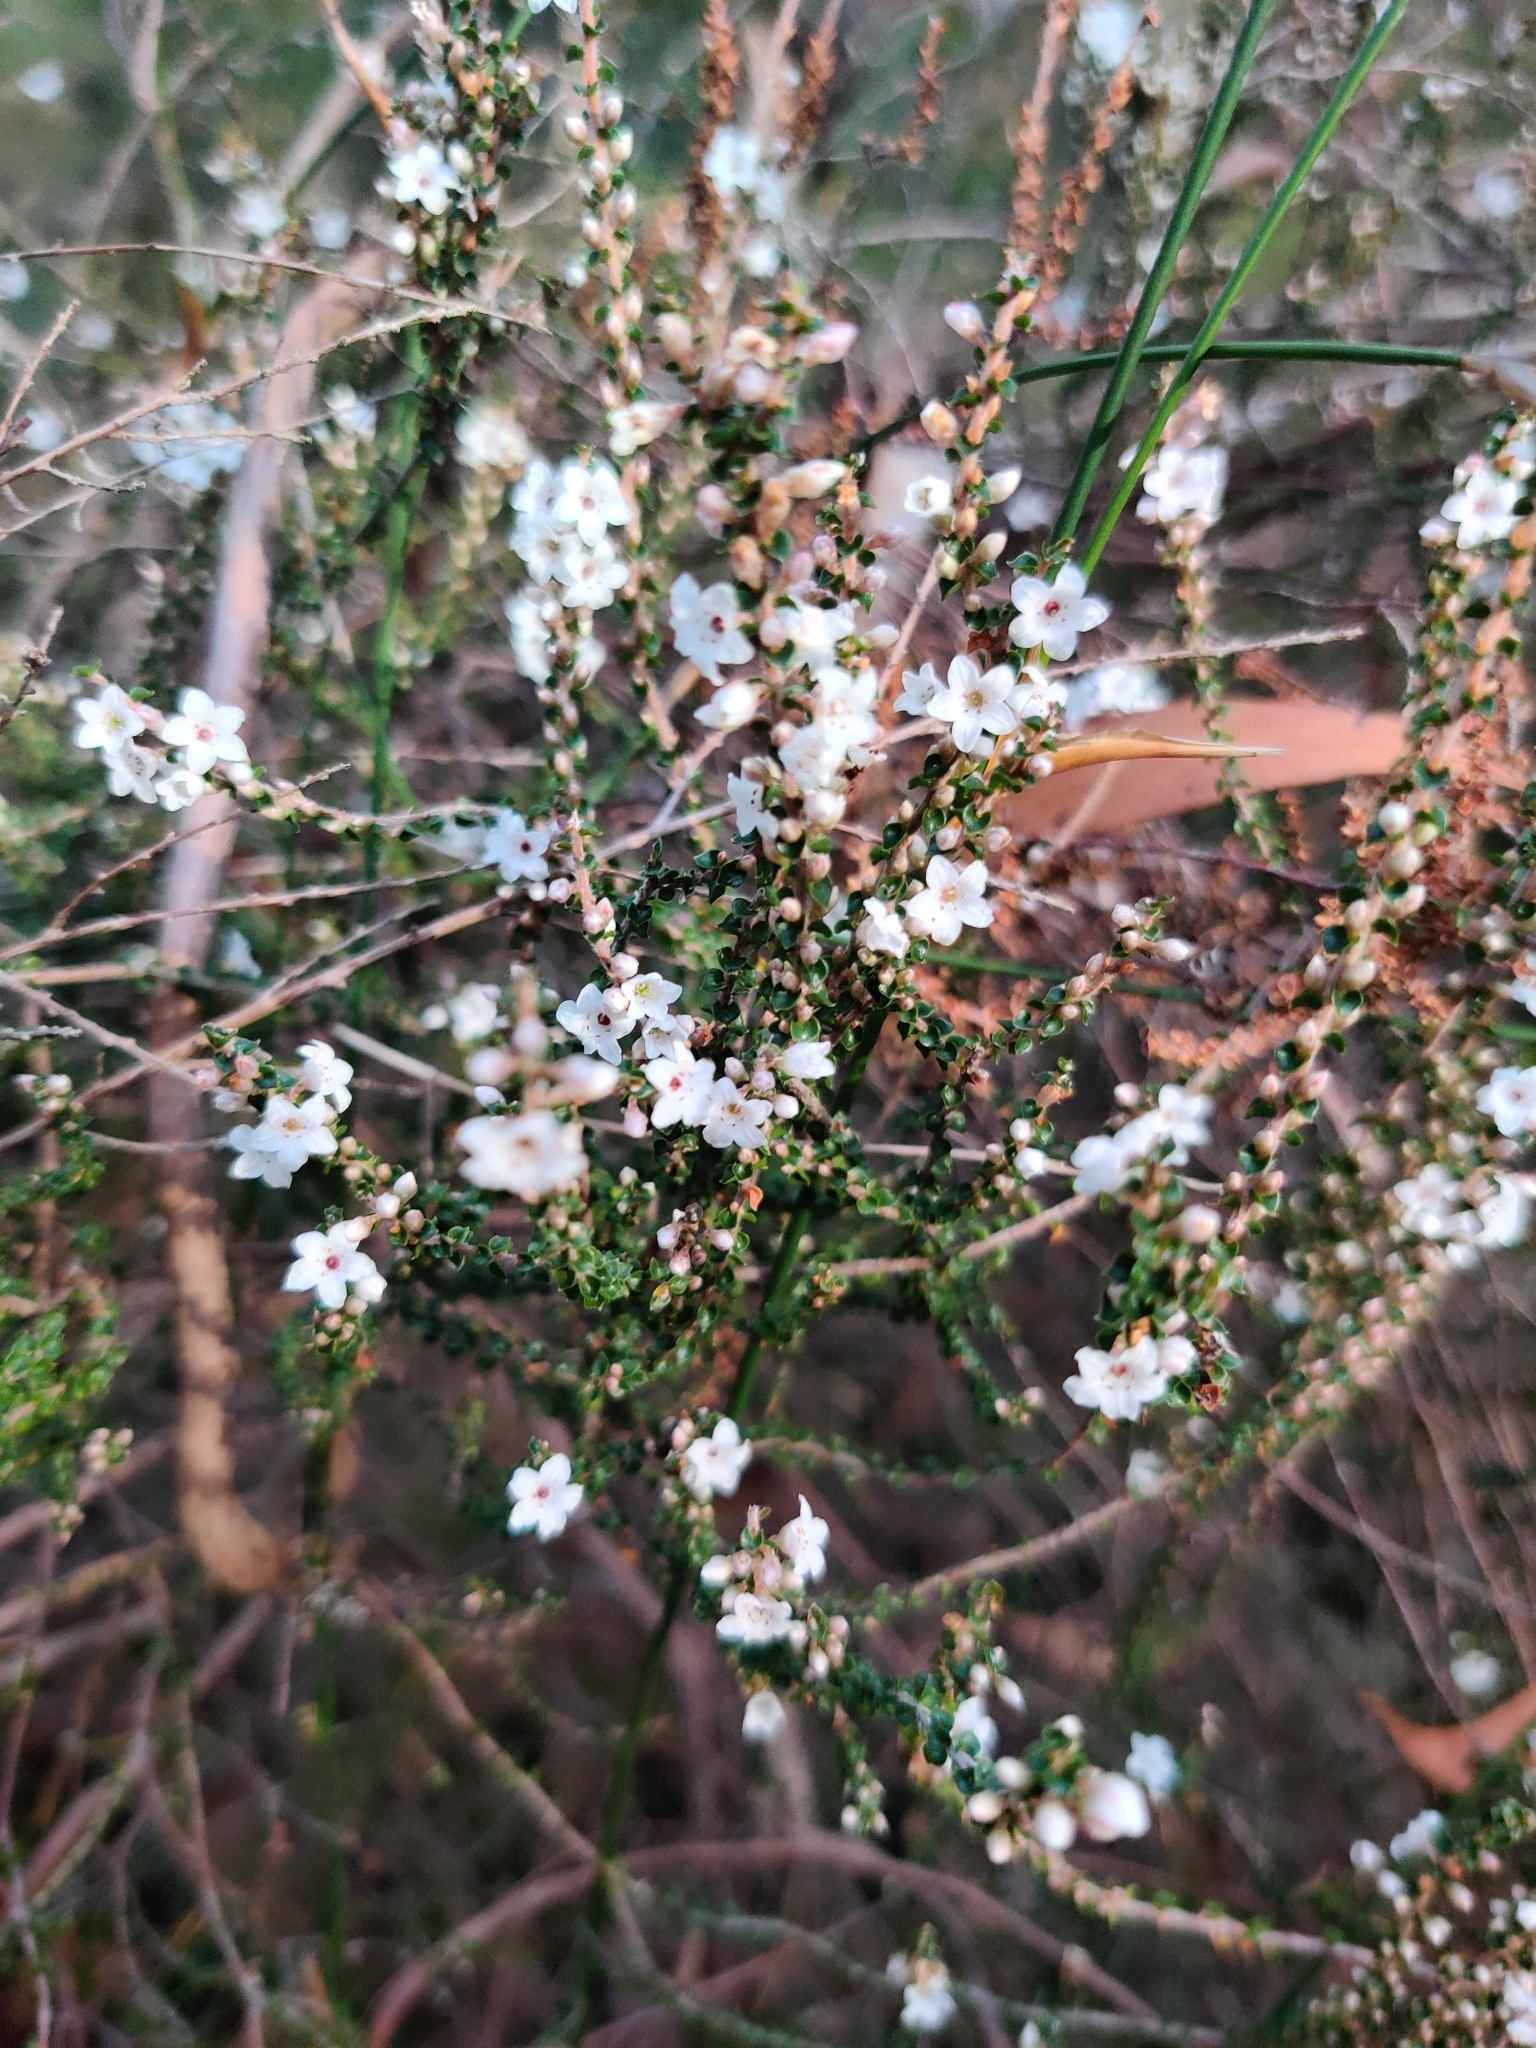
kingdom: Plantae
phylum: Tracheophyta
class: Magnoliopsida
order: Ericales
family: Ericaceae
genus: Epacris
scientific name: Epacris microphylla
